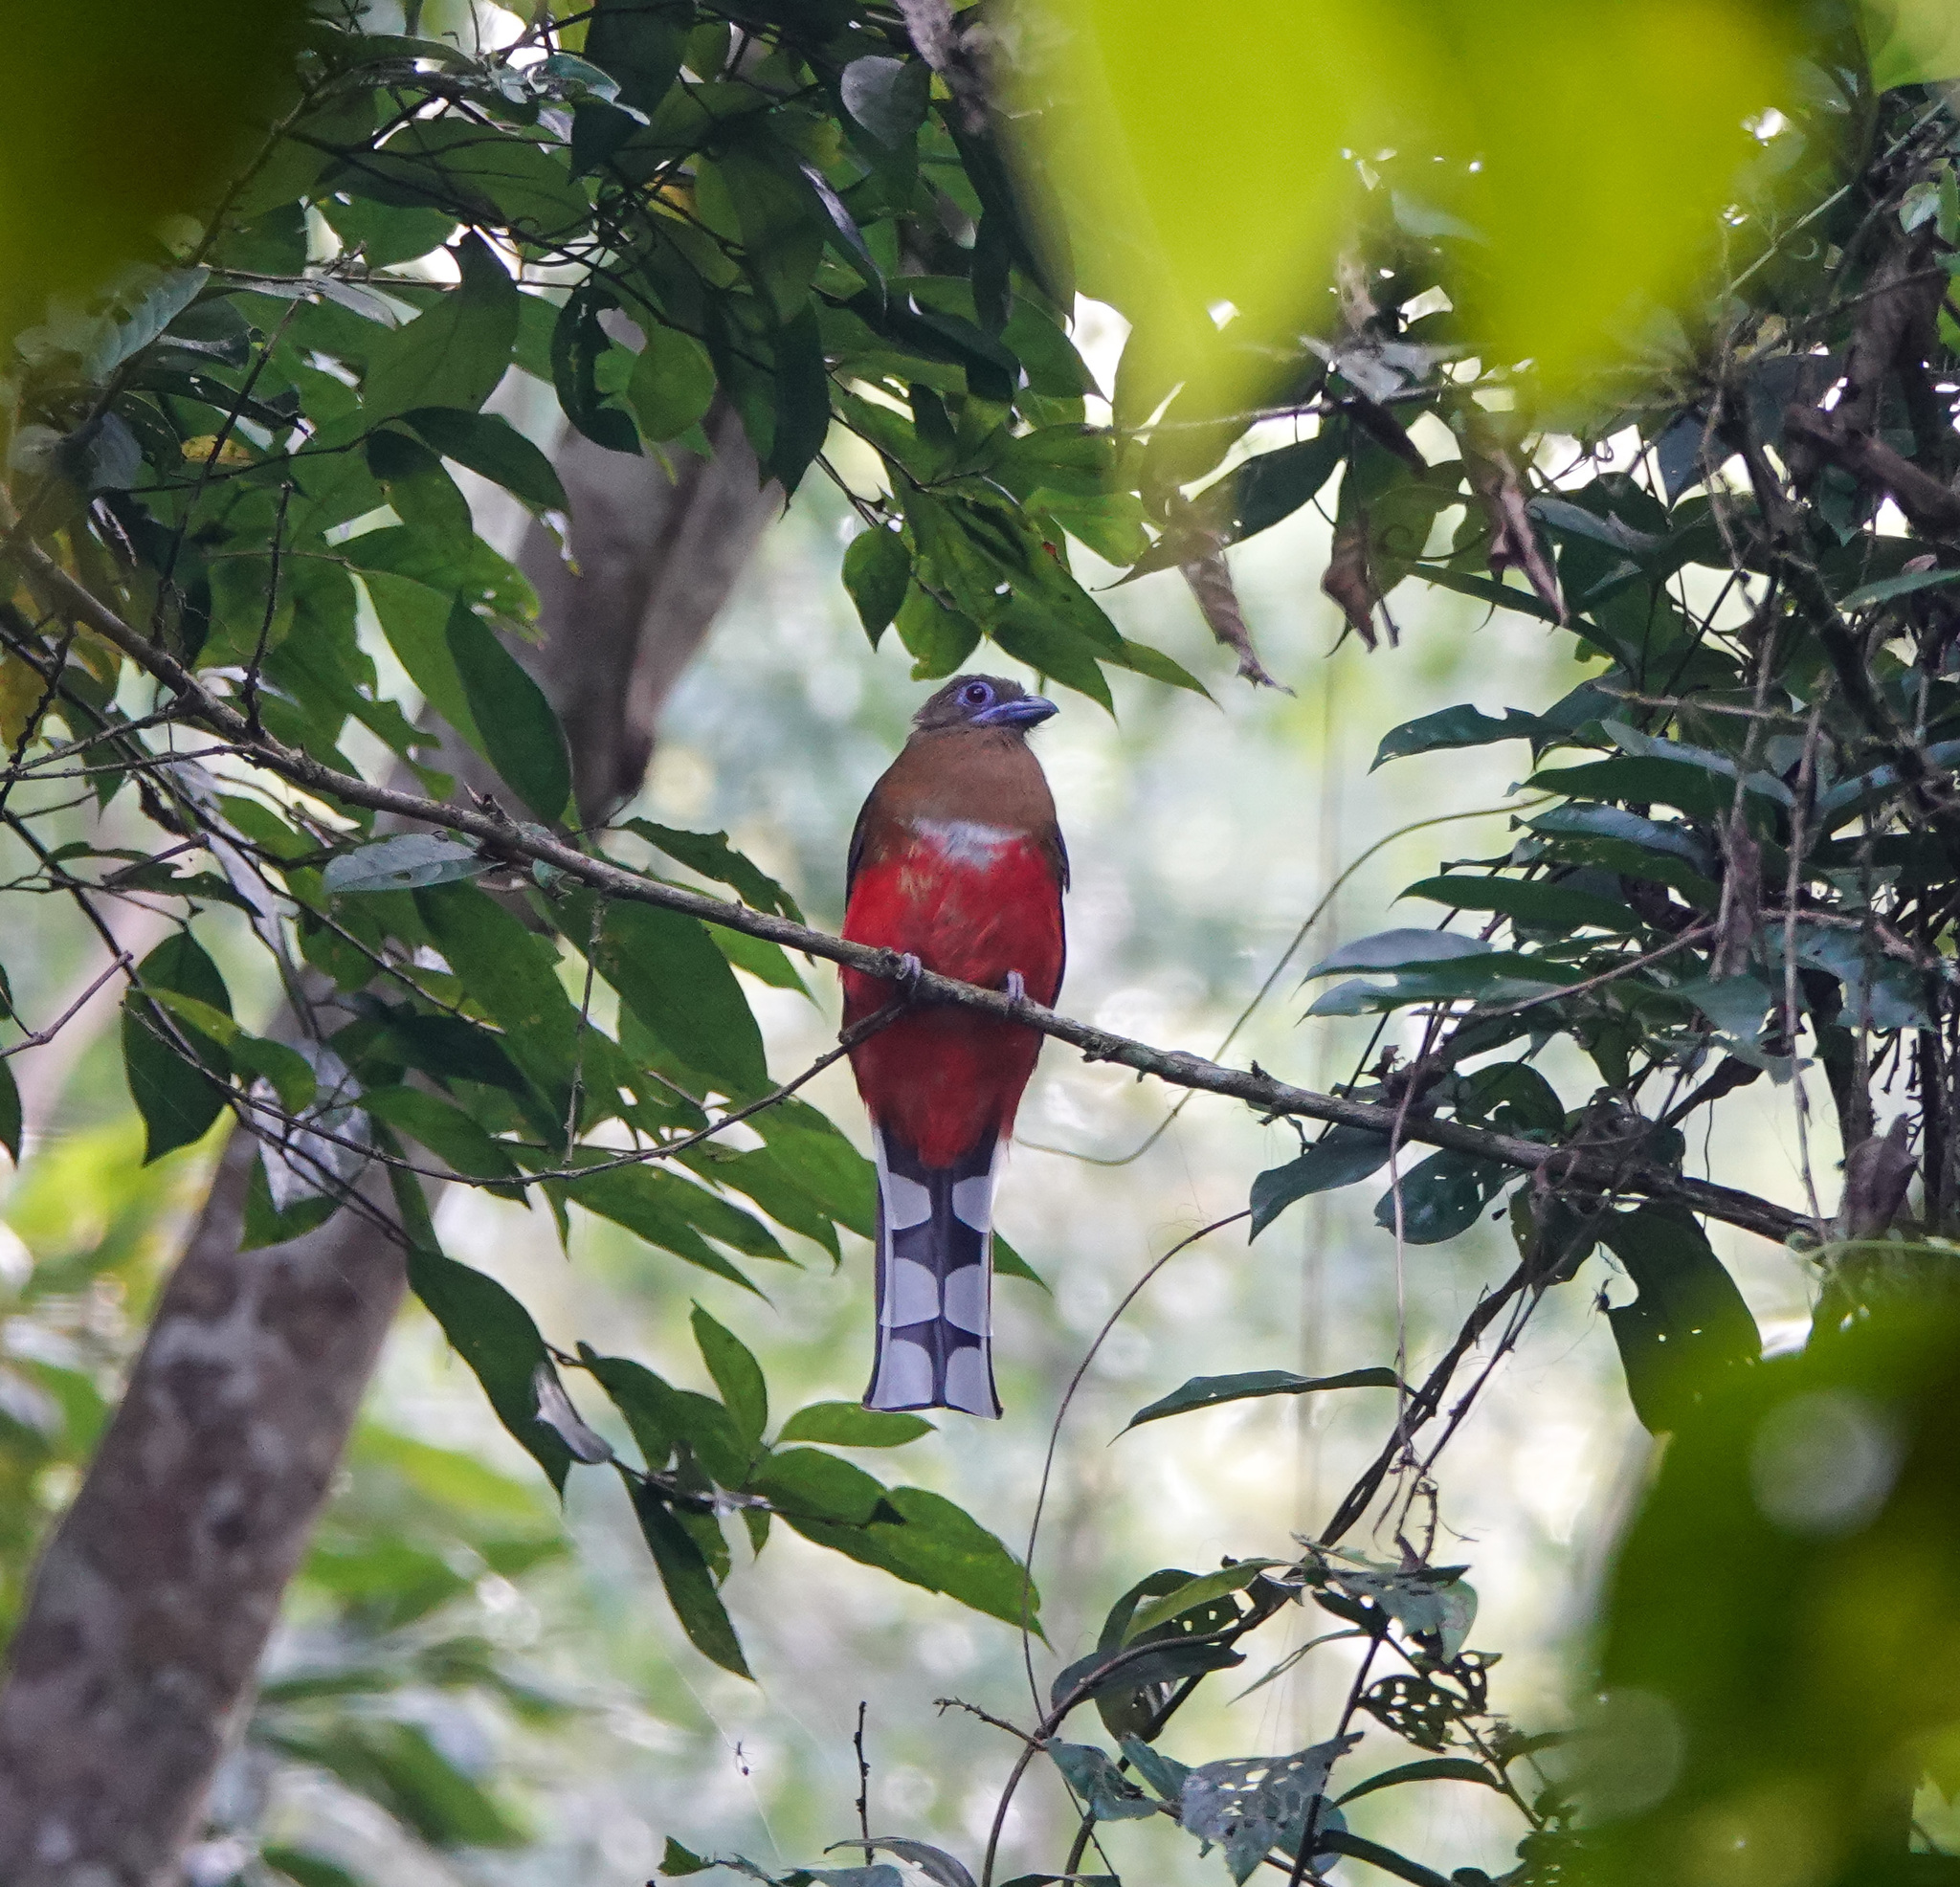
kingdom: Animalia
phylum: Chordata
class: Aves
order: Trogoniformes
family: Trogonidae
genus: Harpactes
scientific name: Harpactes erythrocephalus
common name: Red-headed trogon
